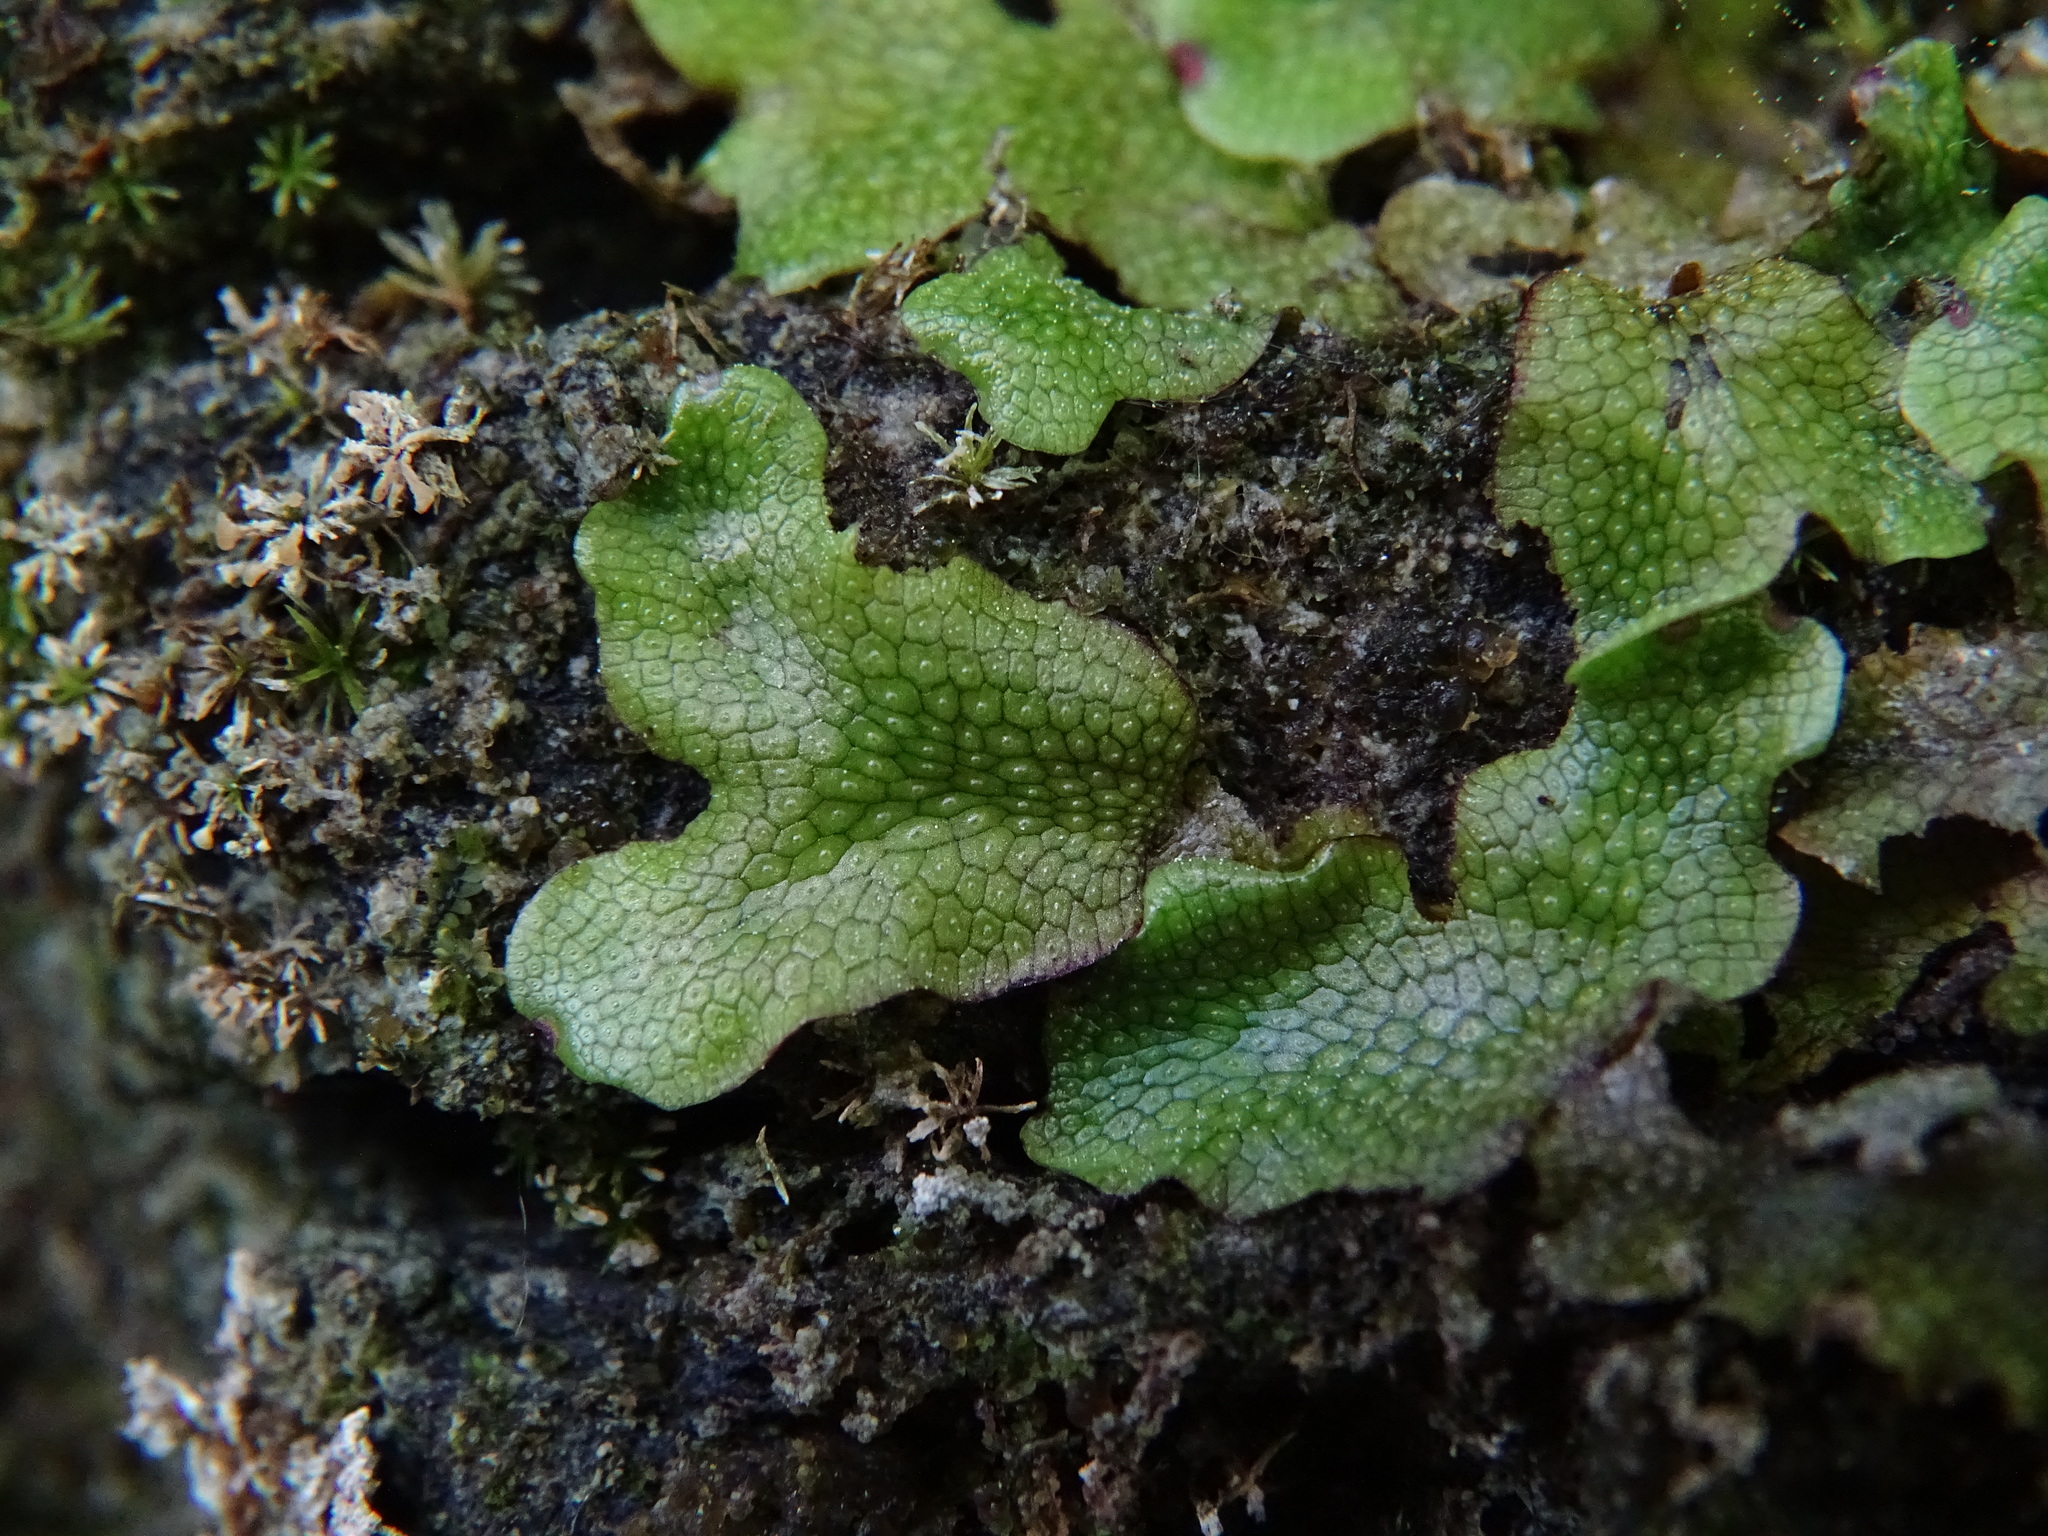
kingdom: Plantae
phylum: Marchantiophyta
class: Marchantiopsida
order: Marchantiales
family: Conocephalaceae
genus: Conocephalum
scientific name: Conocephalum salebrosum
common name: Cat-tongue liverwort
